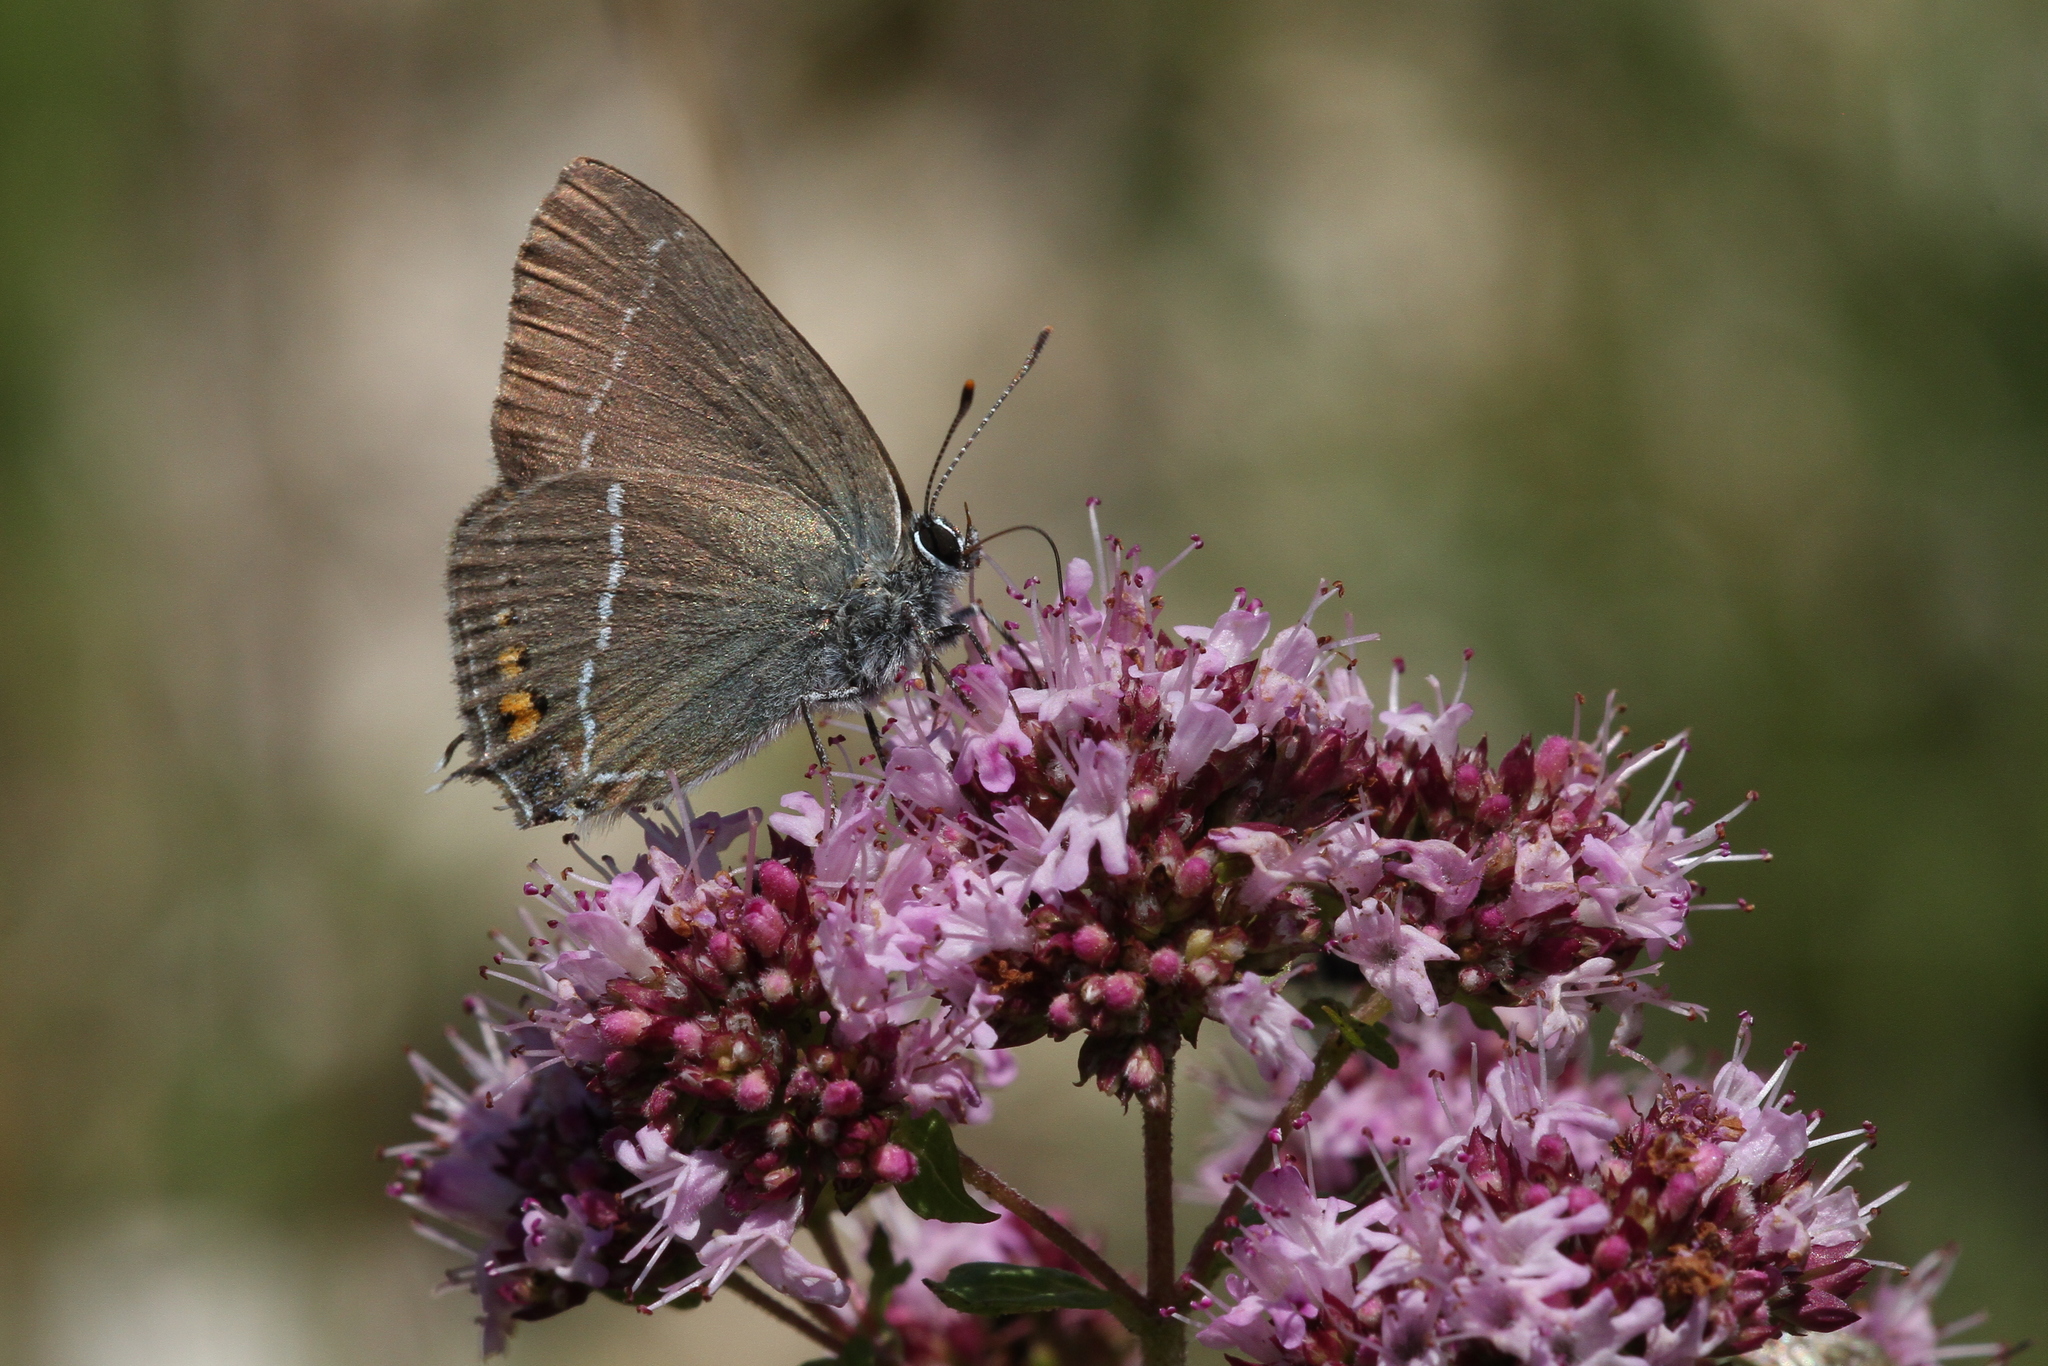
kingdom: Animalia
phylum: Arthropoda
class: Insecta
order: Lepidoptera
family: Lycaenidae
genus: Tuttiola
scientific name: Tuttiola spini
